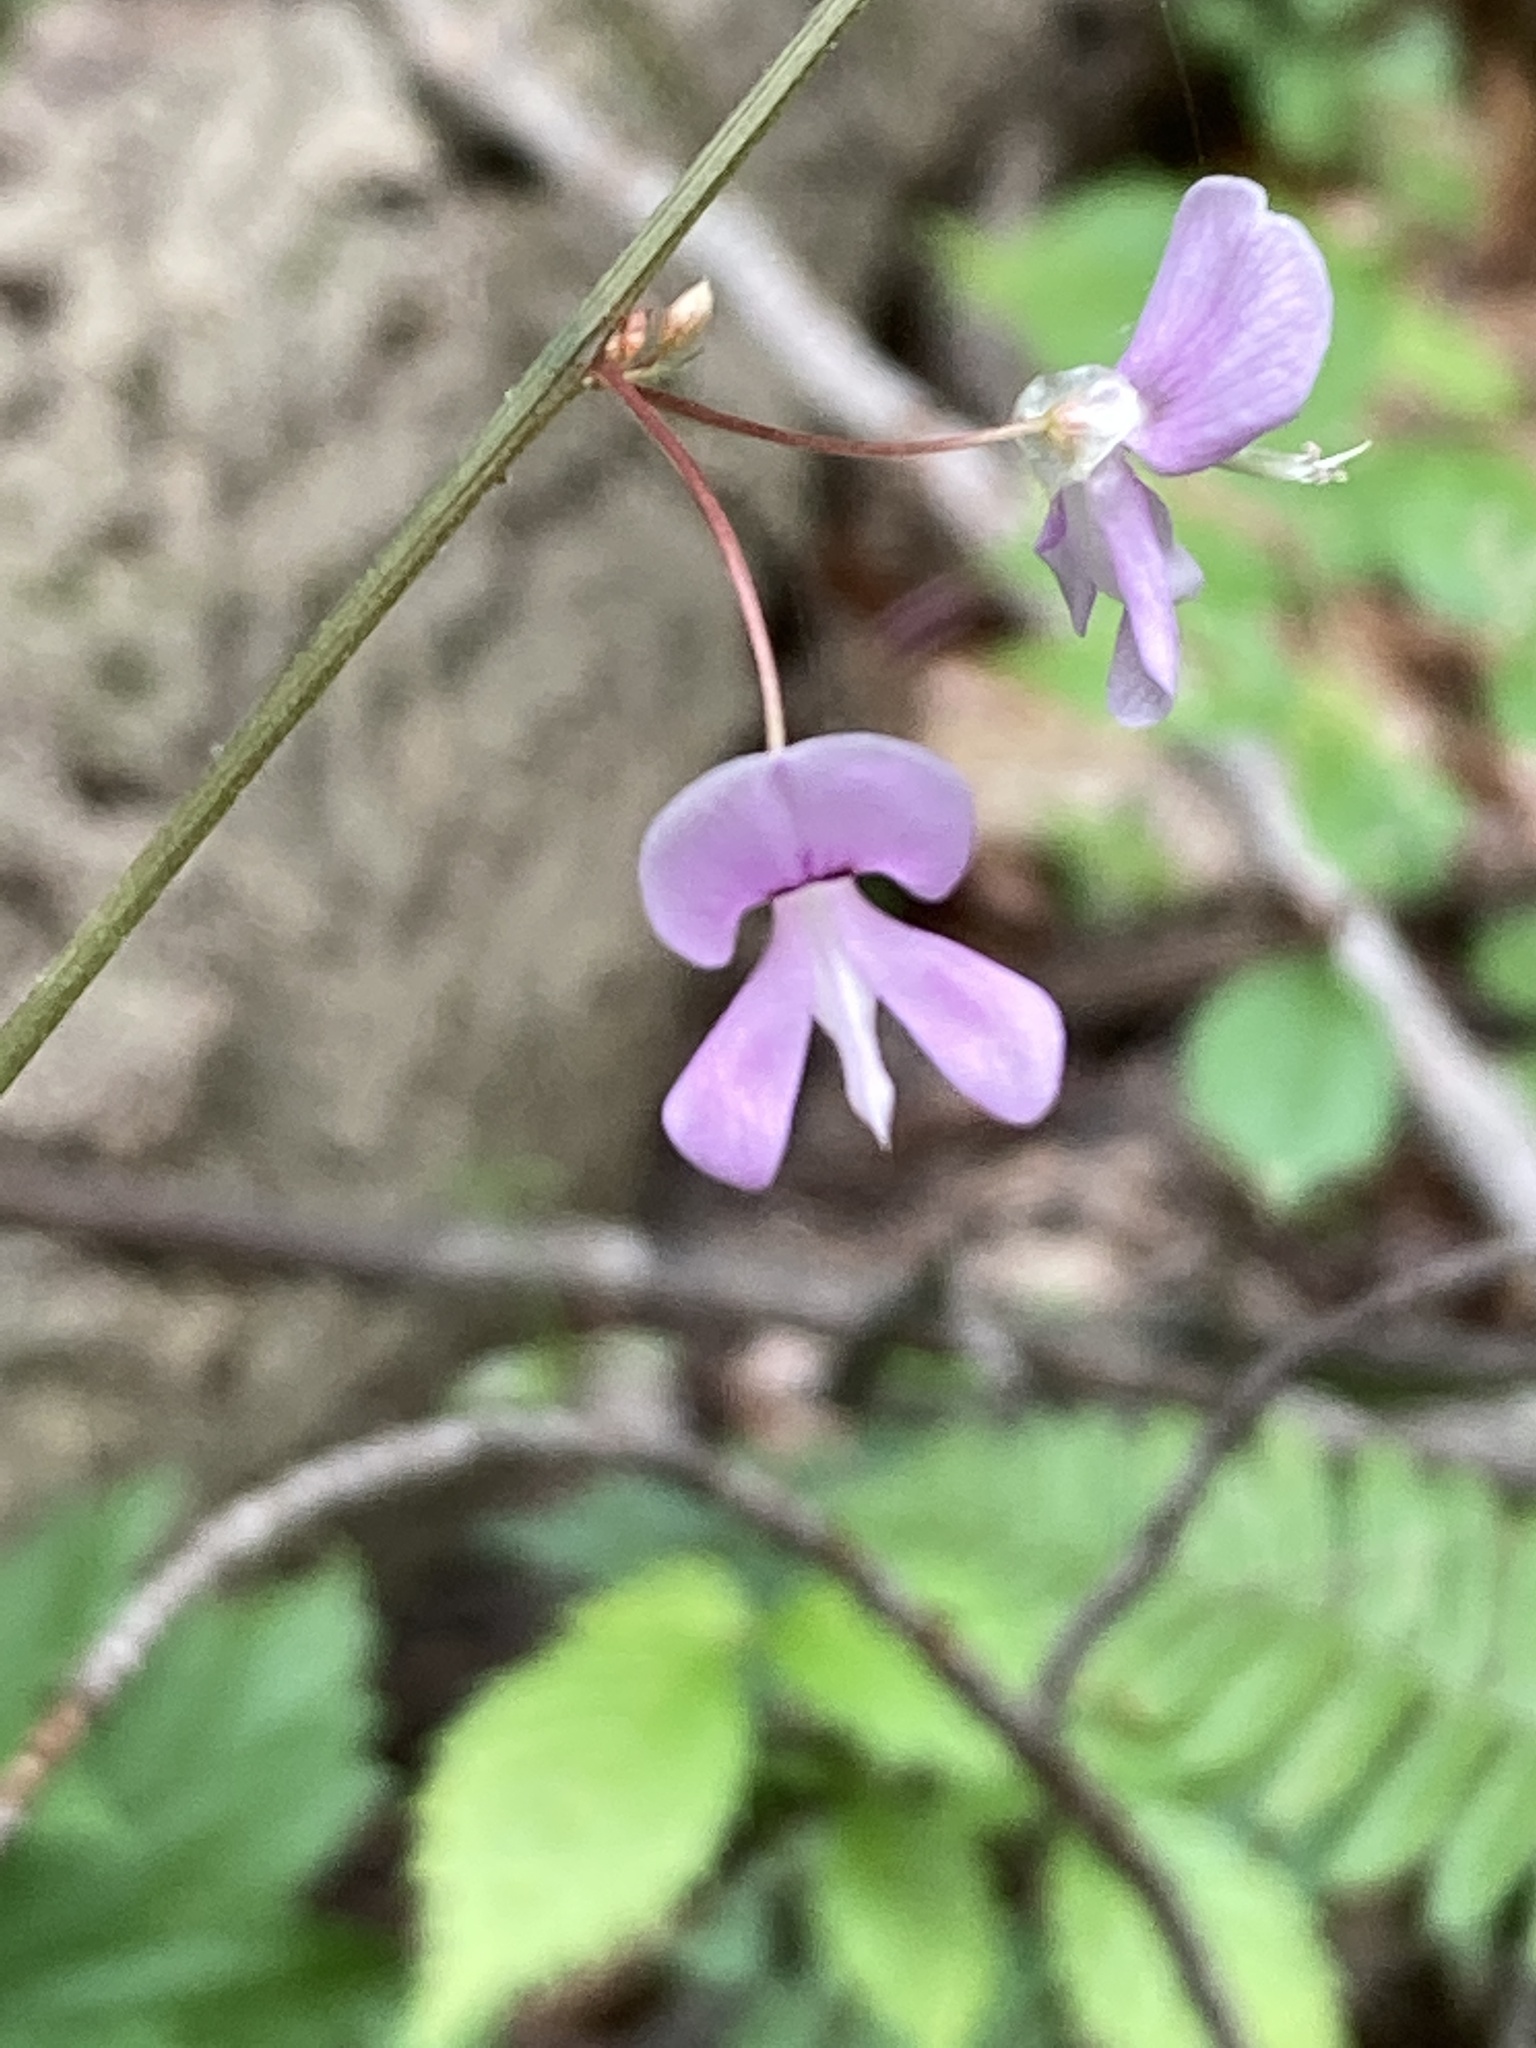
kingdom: Plantae
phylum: Tracheophyta
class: Magnoliopsida
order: Fabales
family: Fabaceae
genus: Hylodesmum
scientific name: Hylodesmum nudiflorum
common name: Bare-stemmed tick-trefoil
